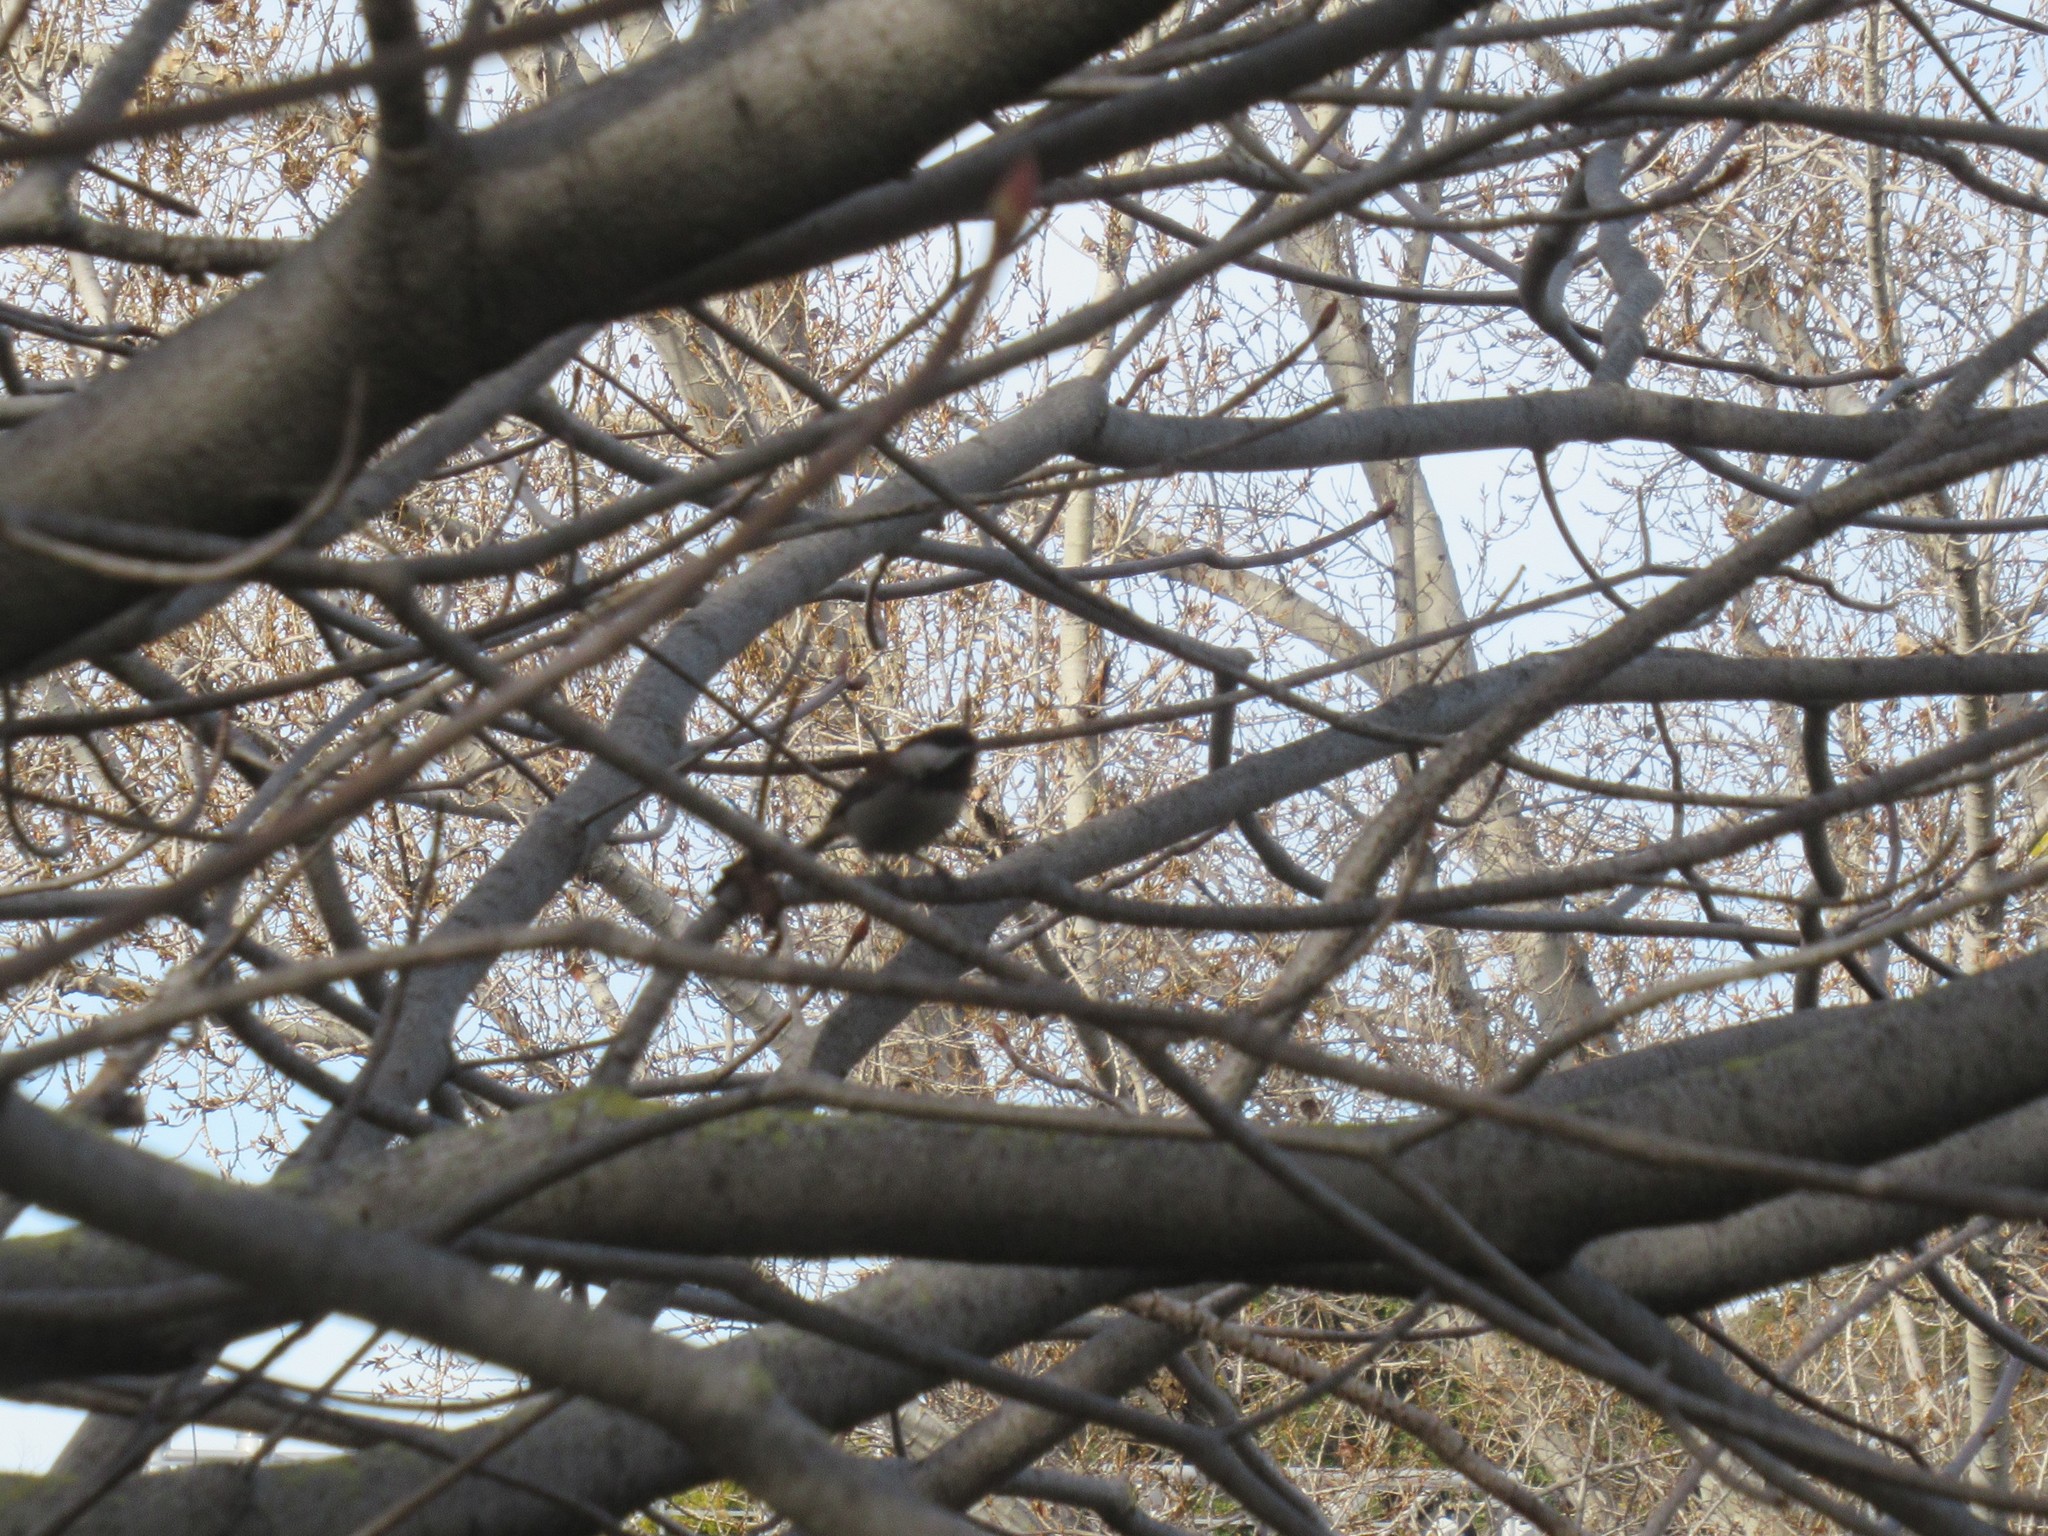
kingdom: Animalia
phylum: Chordata
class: Aves
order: Passeriformes
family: Paridae
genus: Poecile
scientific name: Poecile rufescens
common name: Chestnut-backed chickadee
